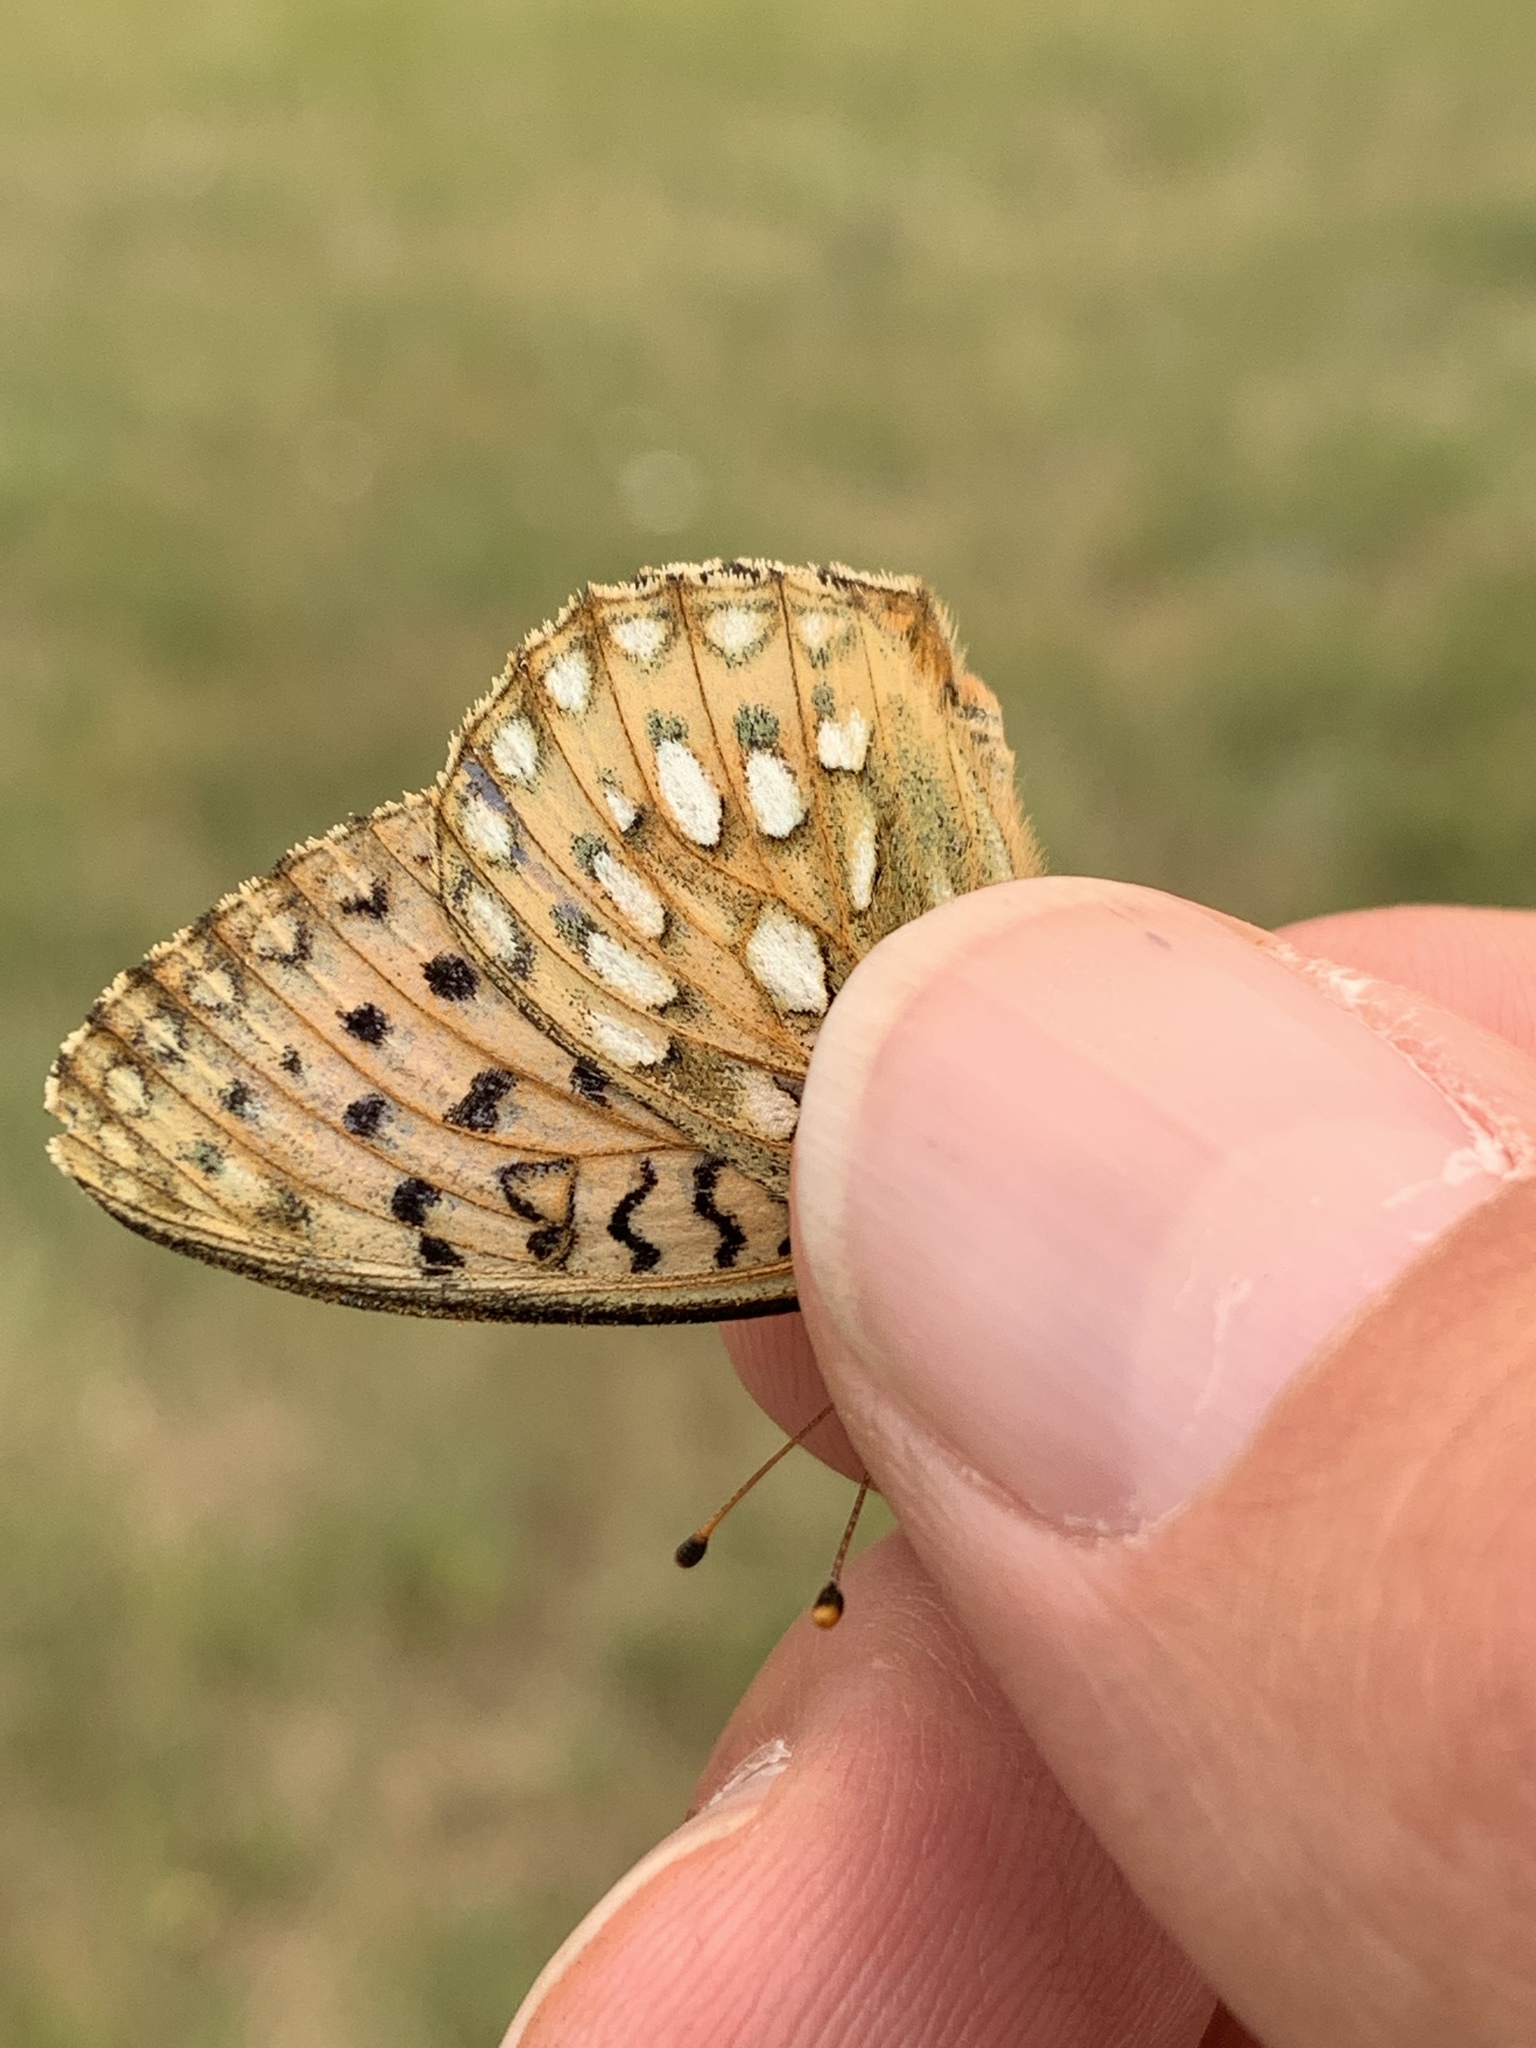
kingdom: Animalia
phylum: Arthropoda
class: Insecta
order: Lepidoptera
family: Nymphalidae
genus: Speyeria
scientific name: Speyeria mormonia
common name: Mormon fritillary
